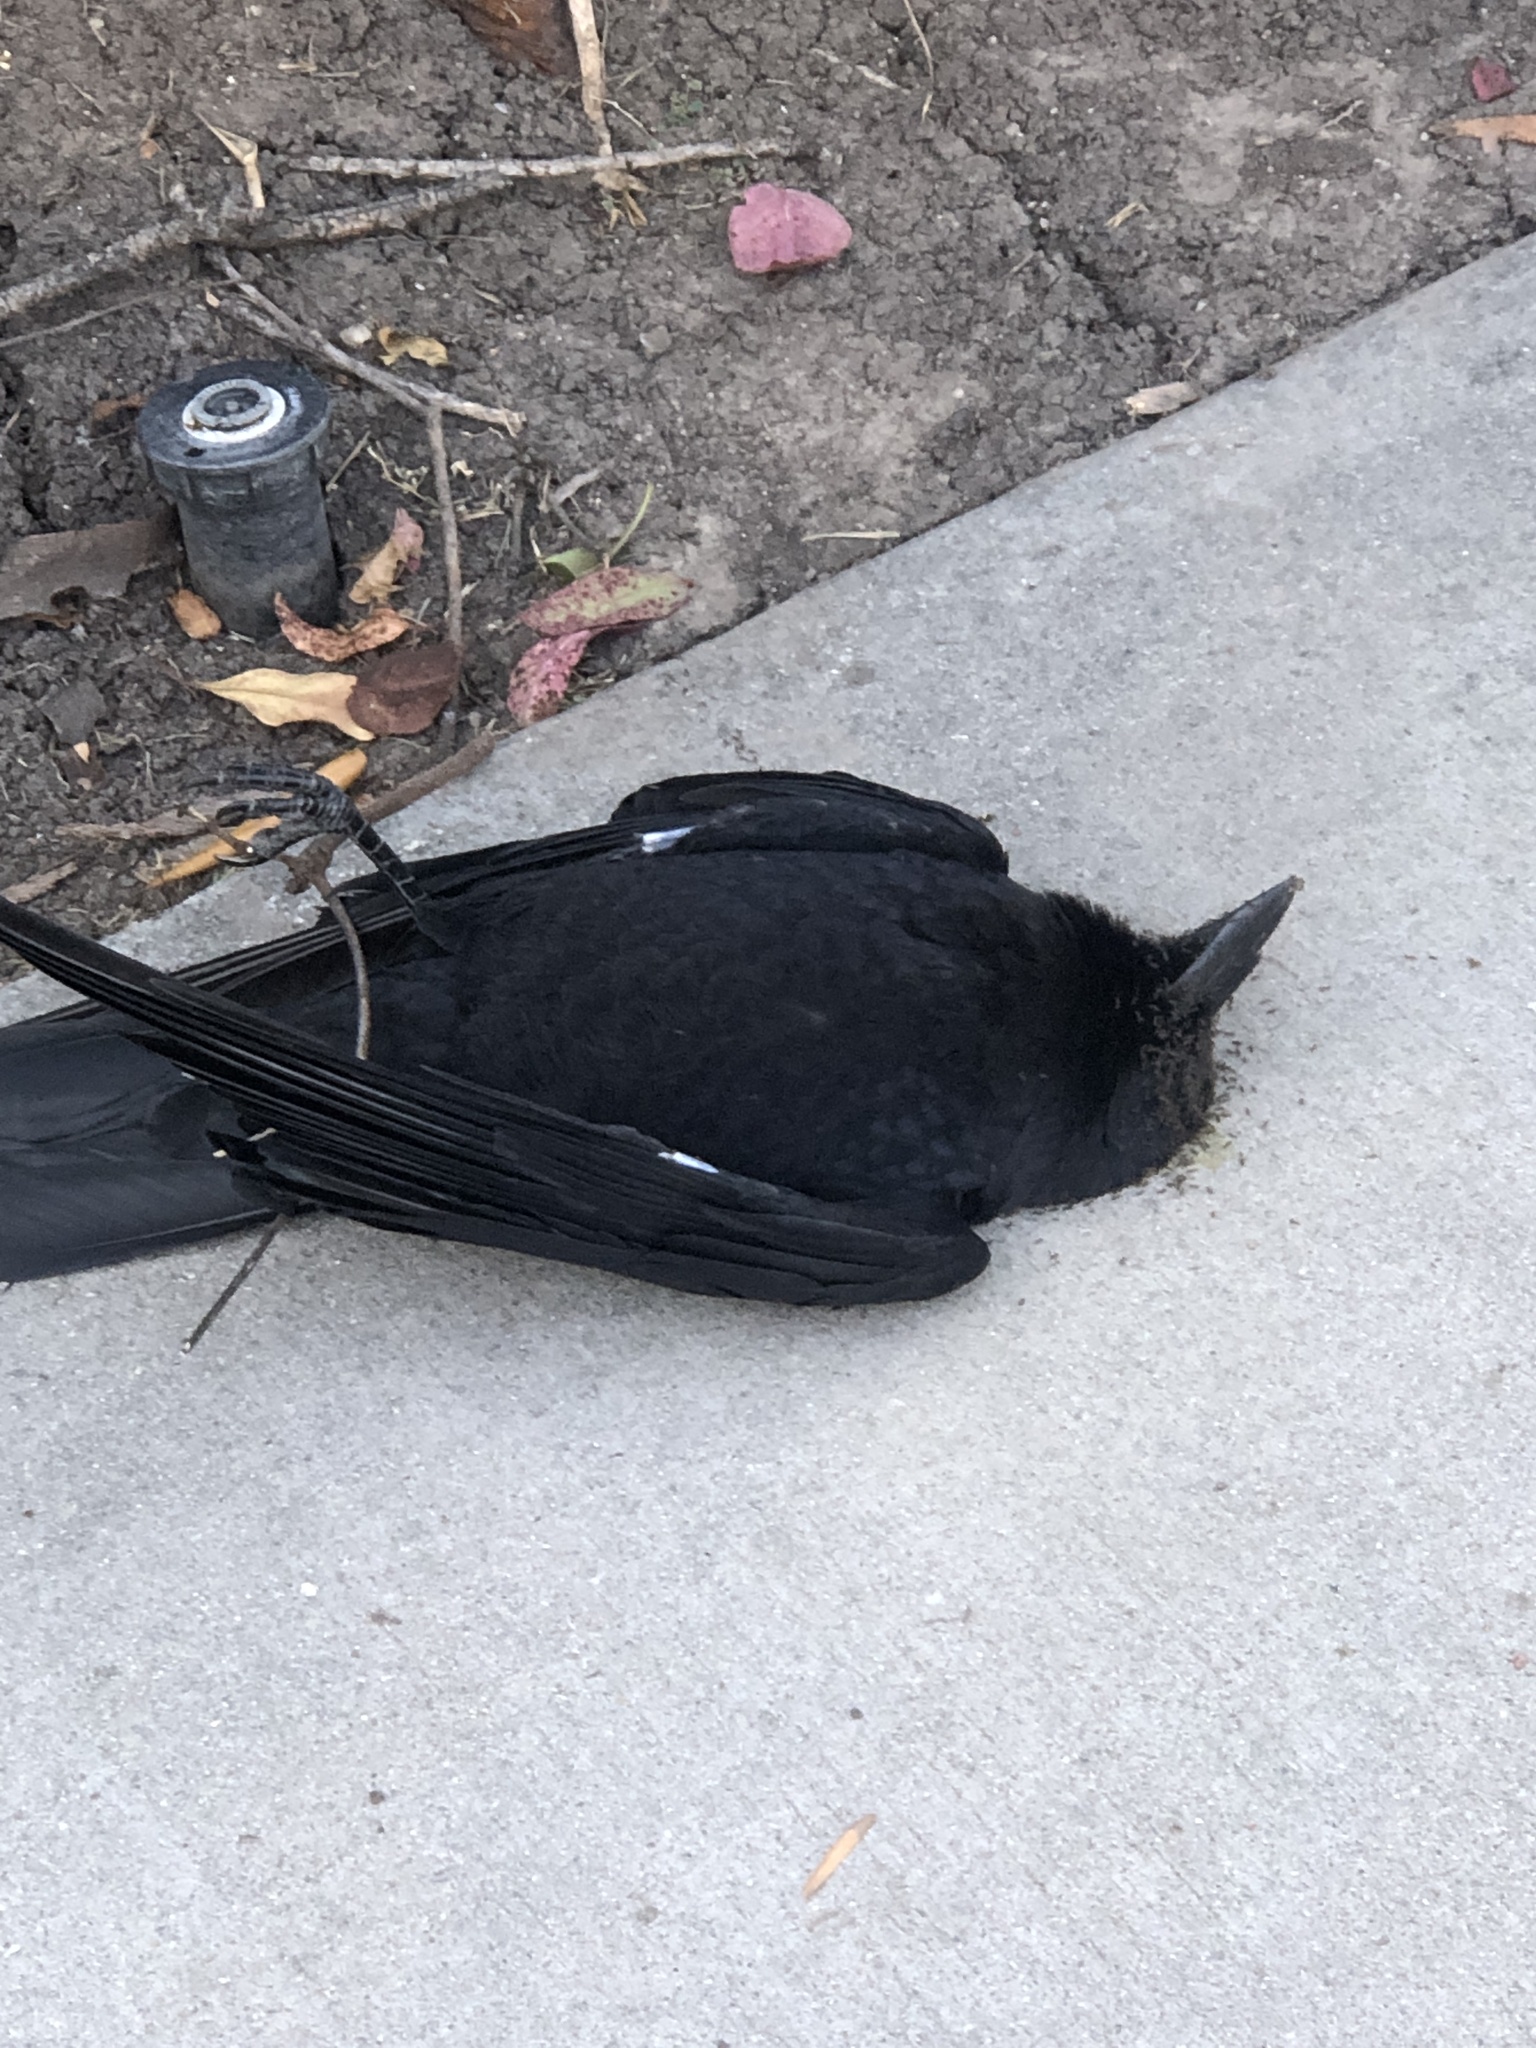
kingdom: Animalia
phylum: Chordata
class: Aves
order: Passeriformes
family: Corvidae
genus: Corvus
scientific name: Corvus brachyrhynchos
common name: American crow
